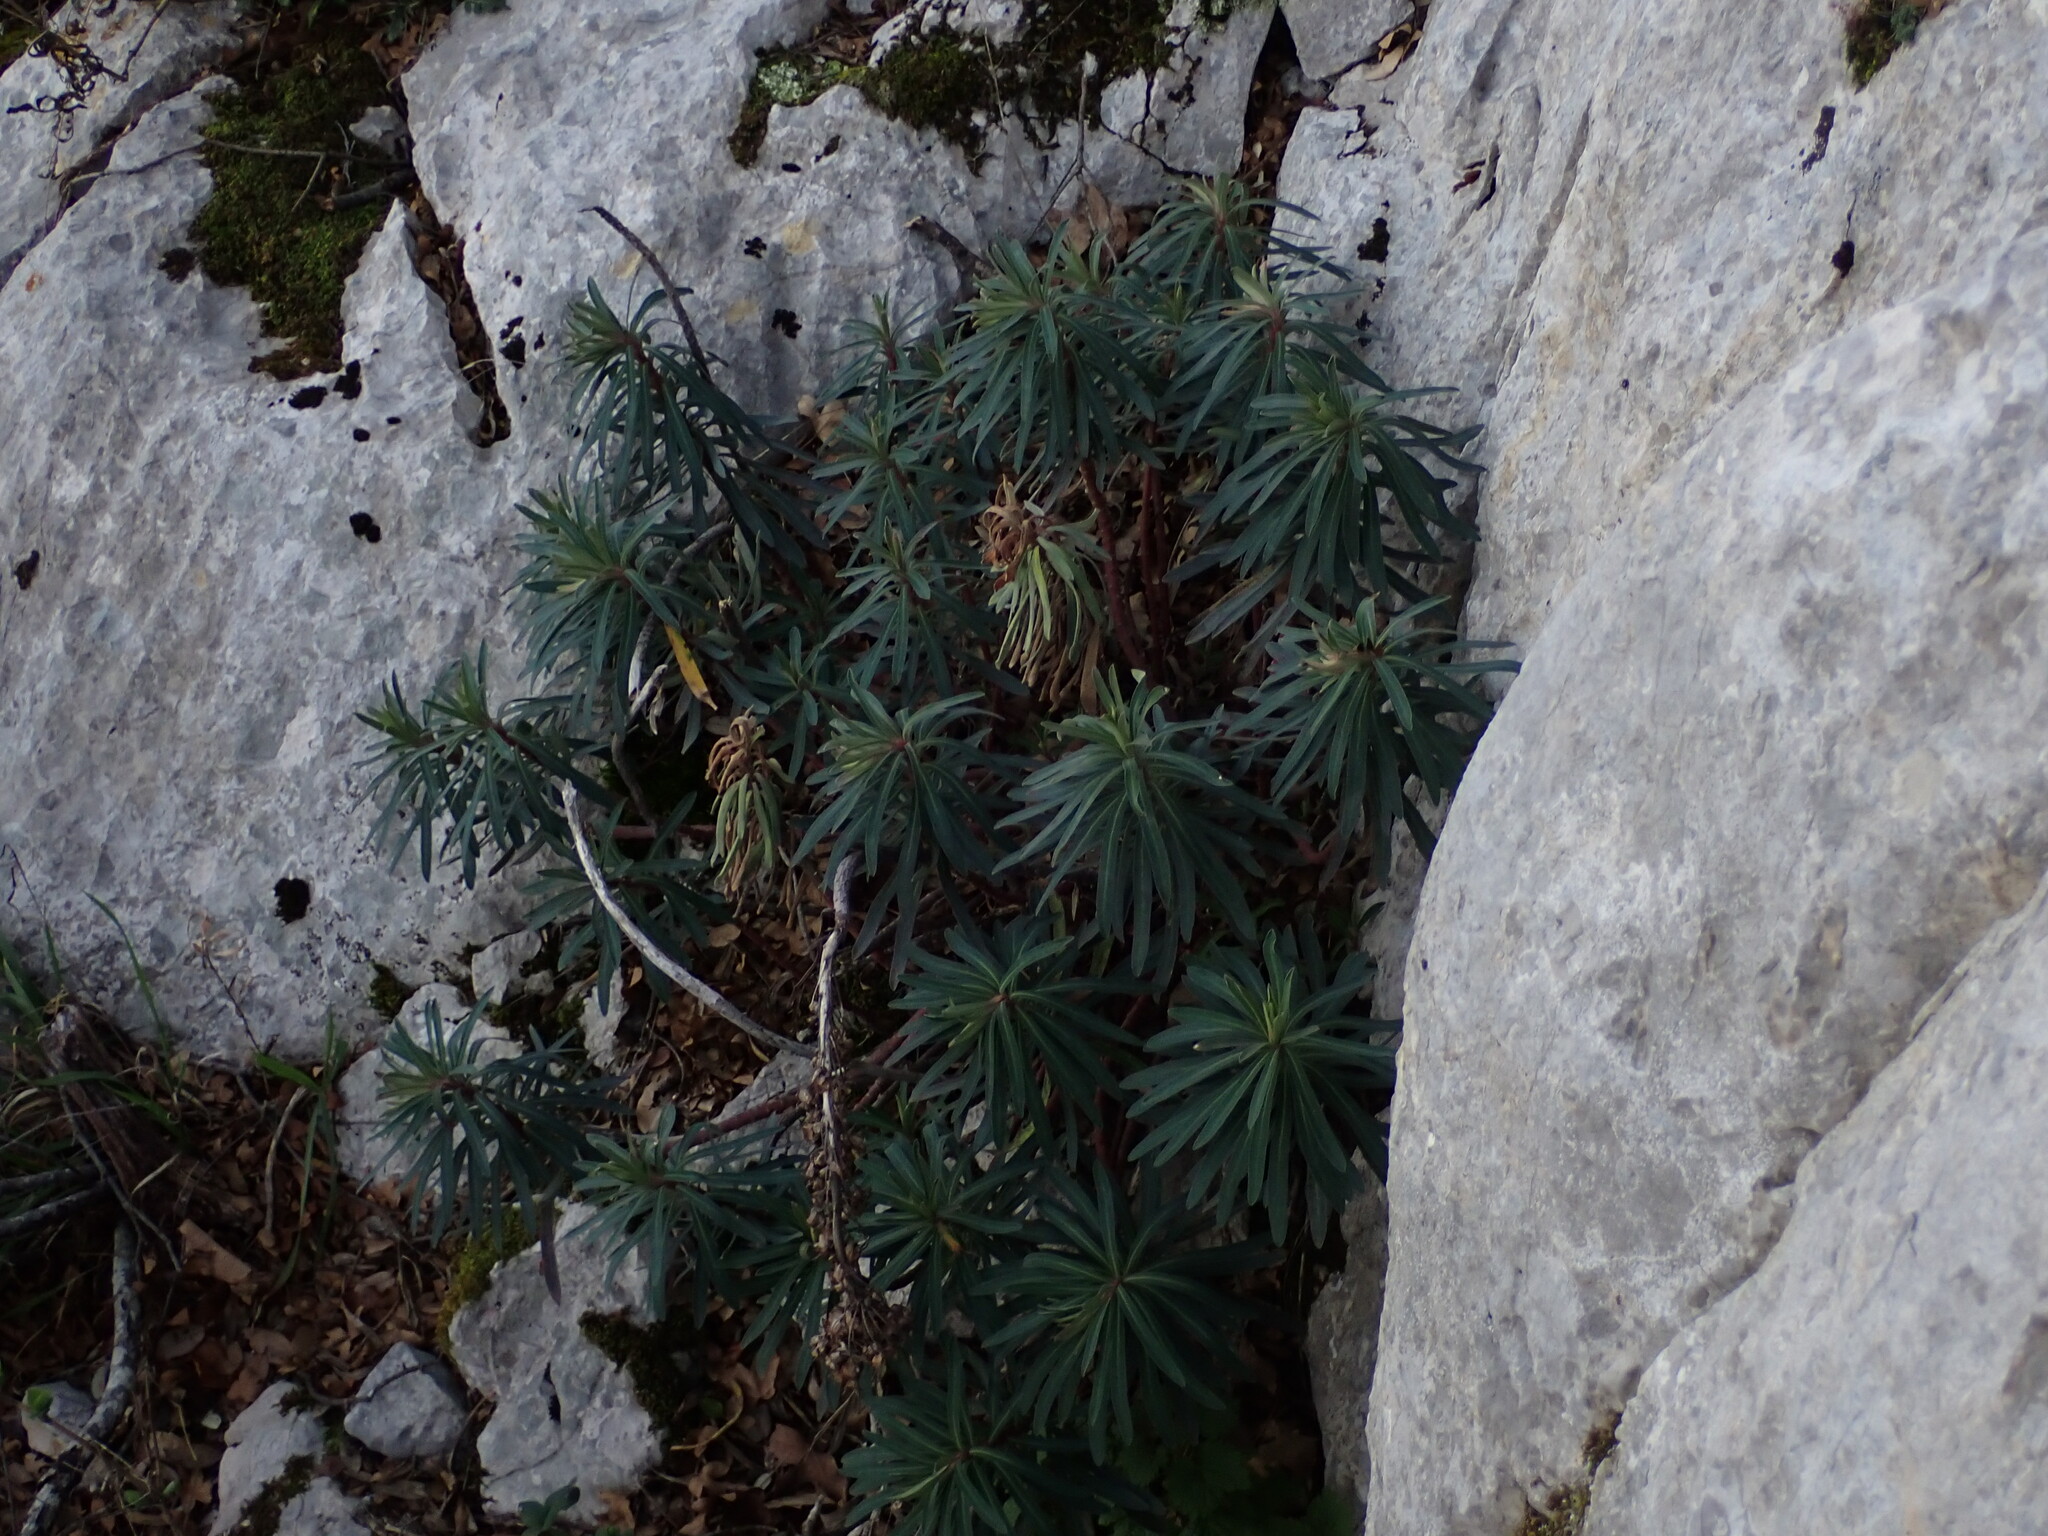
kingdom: Plantae
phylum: Tracheophyta
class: Magnoliopsida
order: Malpighiales
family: Euphorbiaceae
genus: Euphorbia
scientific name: Euphorbia characias
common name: Mediterranean spurge
